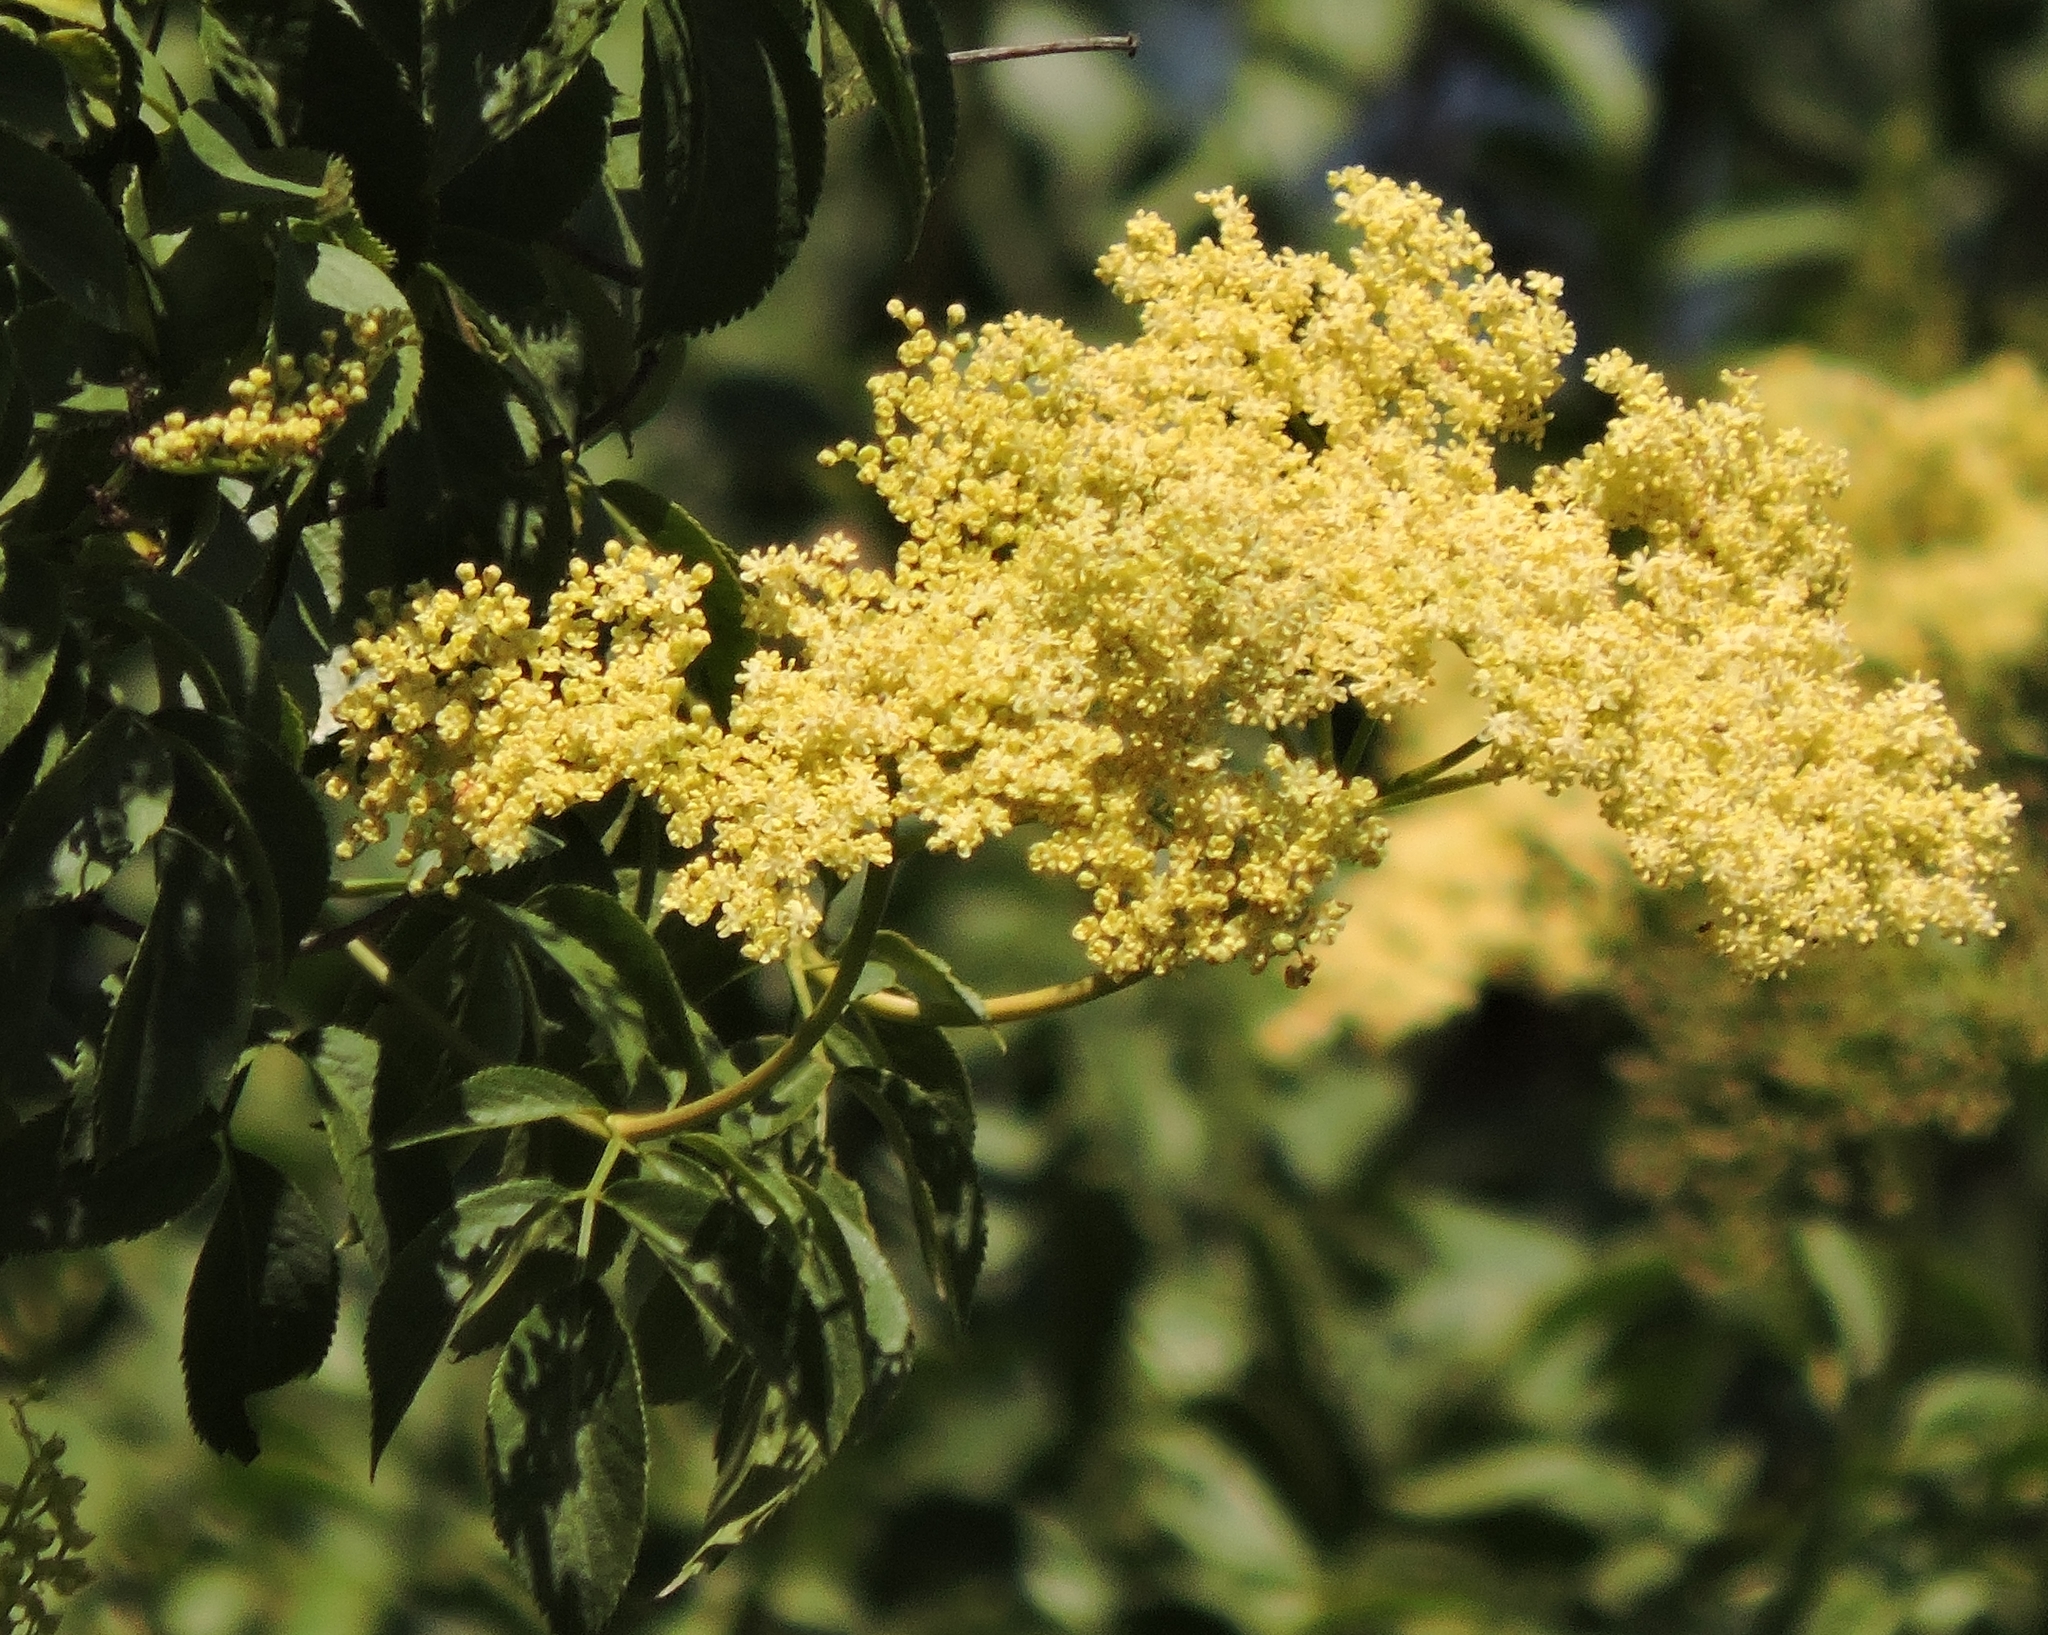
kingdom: Plantae
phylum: Tracheophyta
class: Magnoliopsida
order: Dipsacales
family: Viburnaceae
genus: Sambucus
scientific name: Sambucus cerulea
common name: Blue elder
